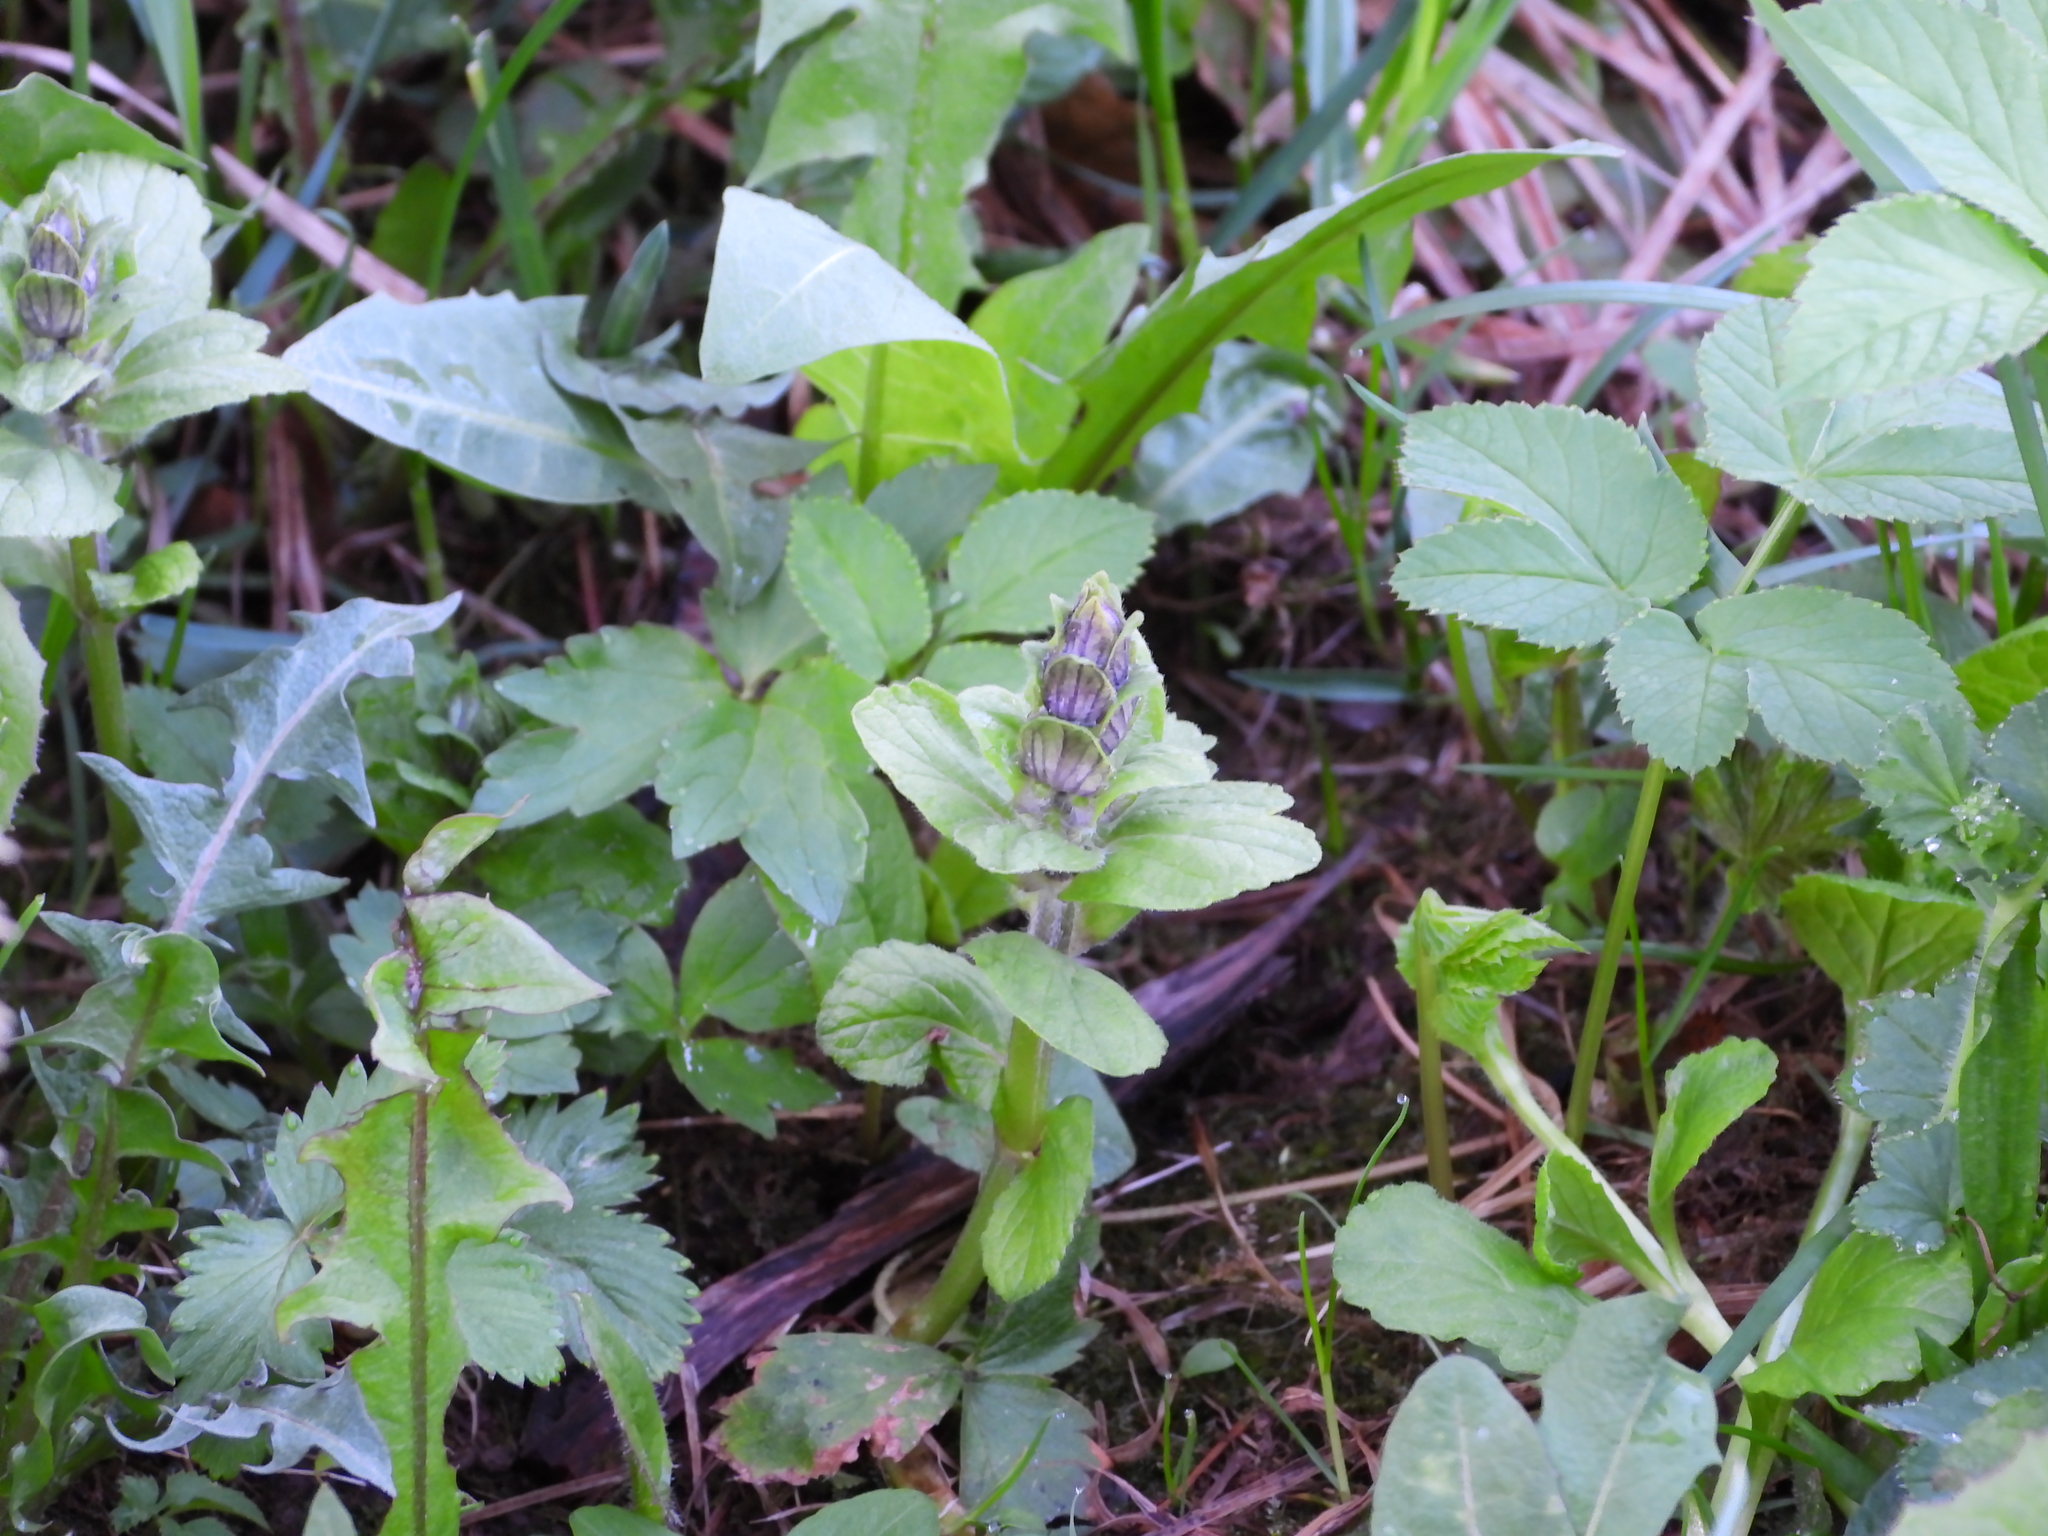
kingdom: Plantae
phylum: Tracheophyta
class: Magnoliopsida
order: Lamiales
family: Lamiaceae
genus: Ajuga
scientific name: Ajuga reptans
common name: Bugle
